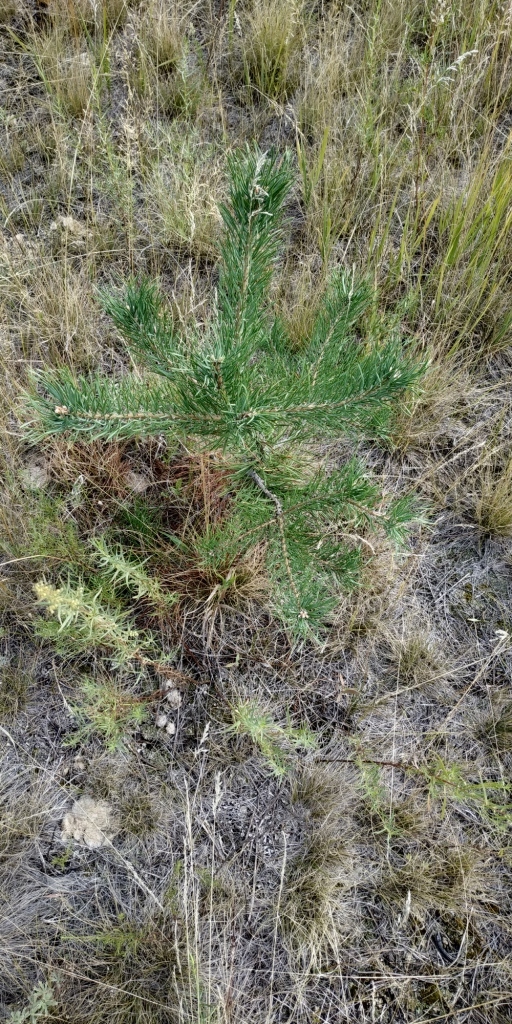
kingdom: Plantae
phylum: Tracheophyta
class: Pinopsida
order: Pinales
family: Pinaceae
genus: Pinus
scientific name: Pinus sylvestris
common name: Scots pine
